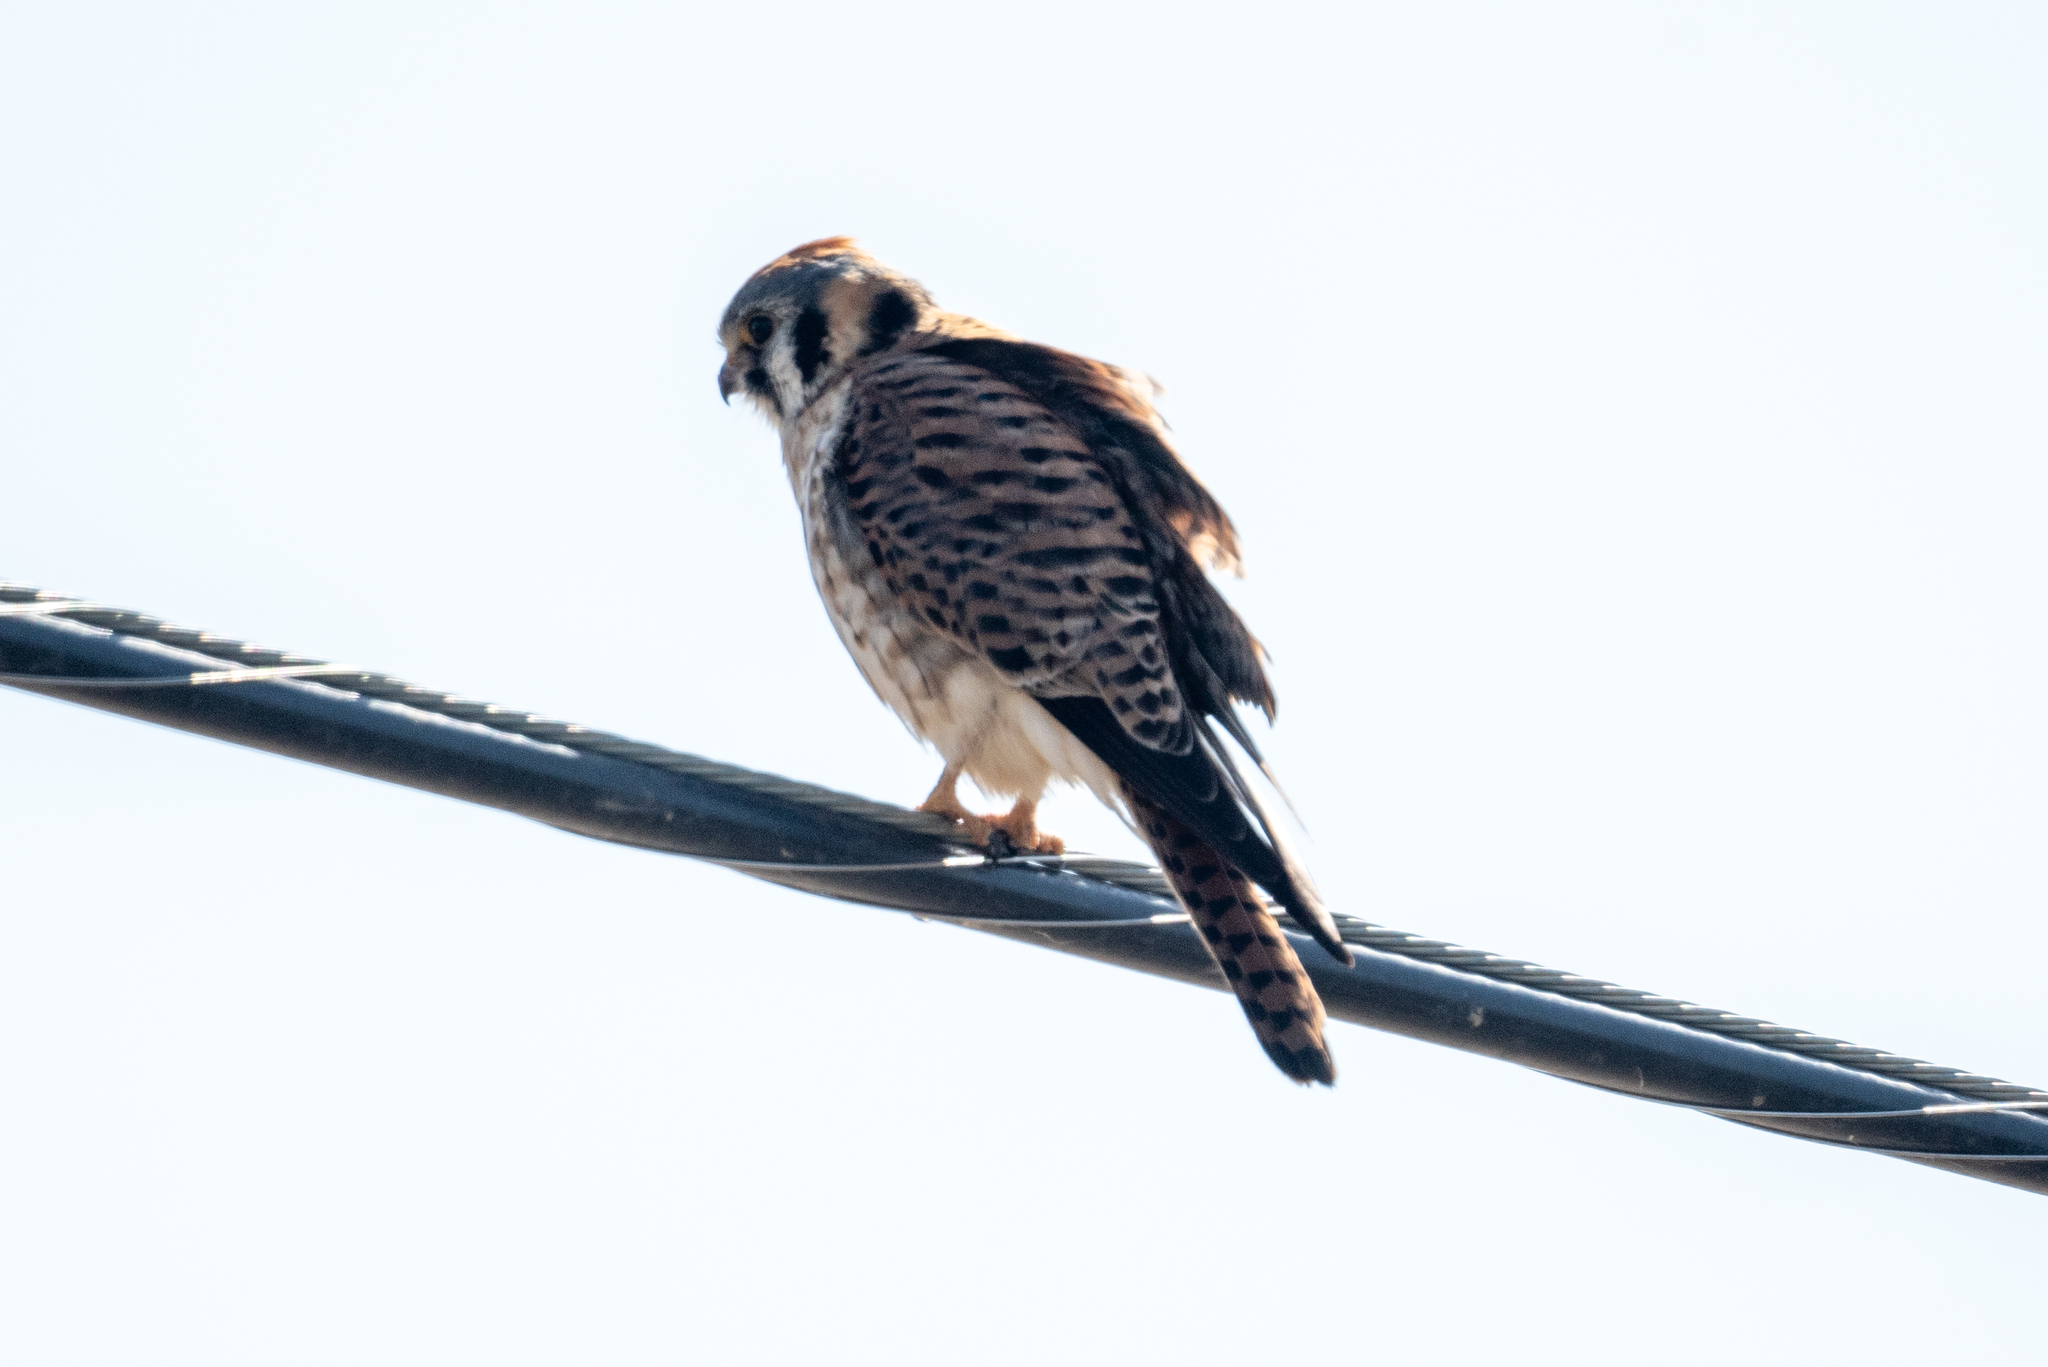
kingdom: Animalia
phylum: Chordata
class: Aves
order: Falconiformes
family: Falconidae
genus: Falco
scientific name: Falco sparverius
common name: American kestrel
